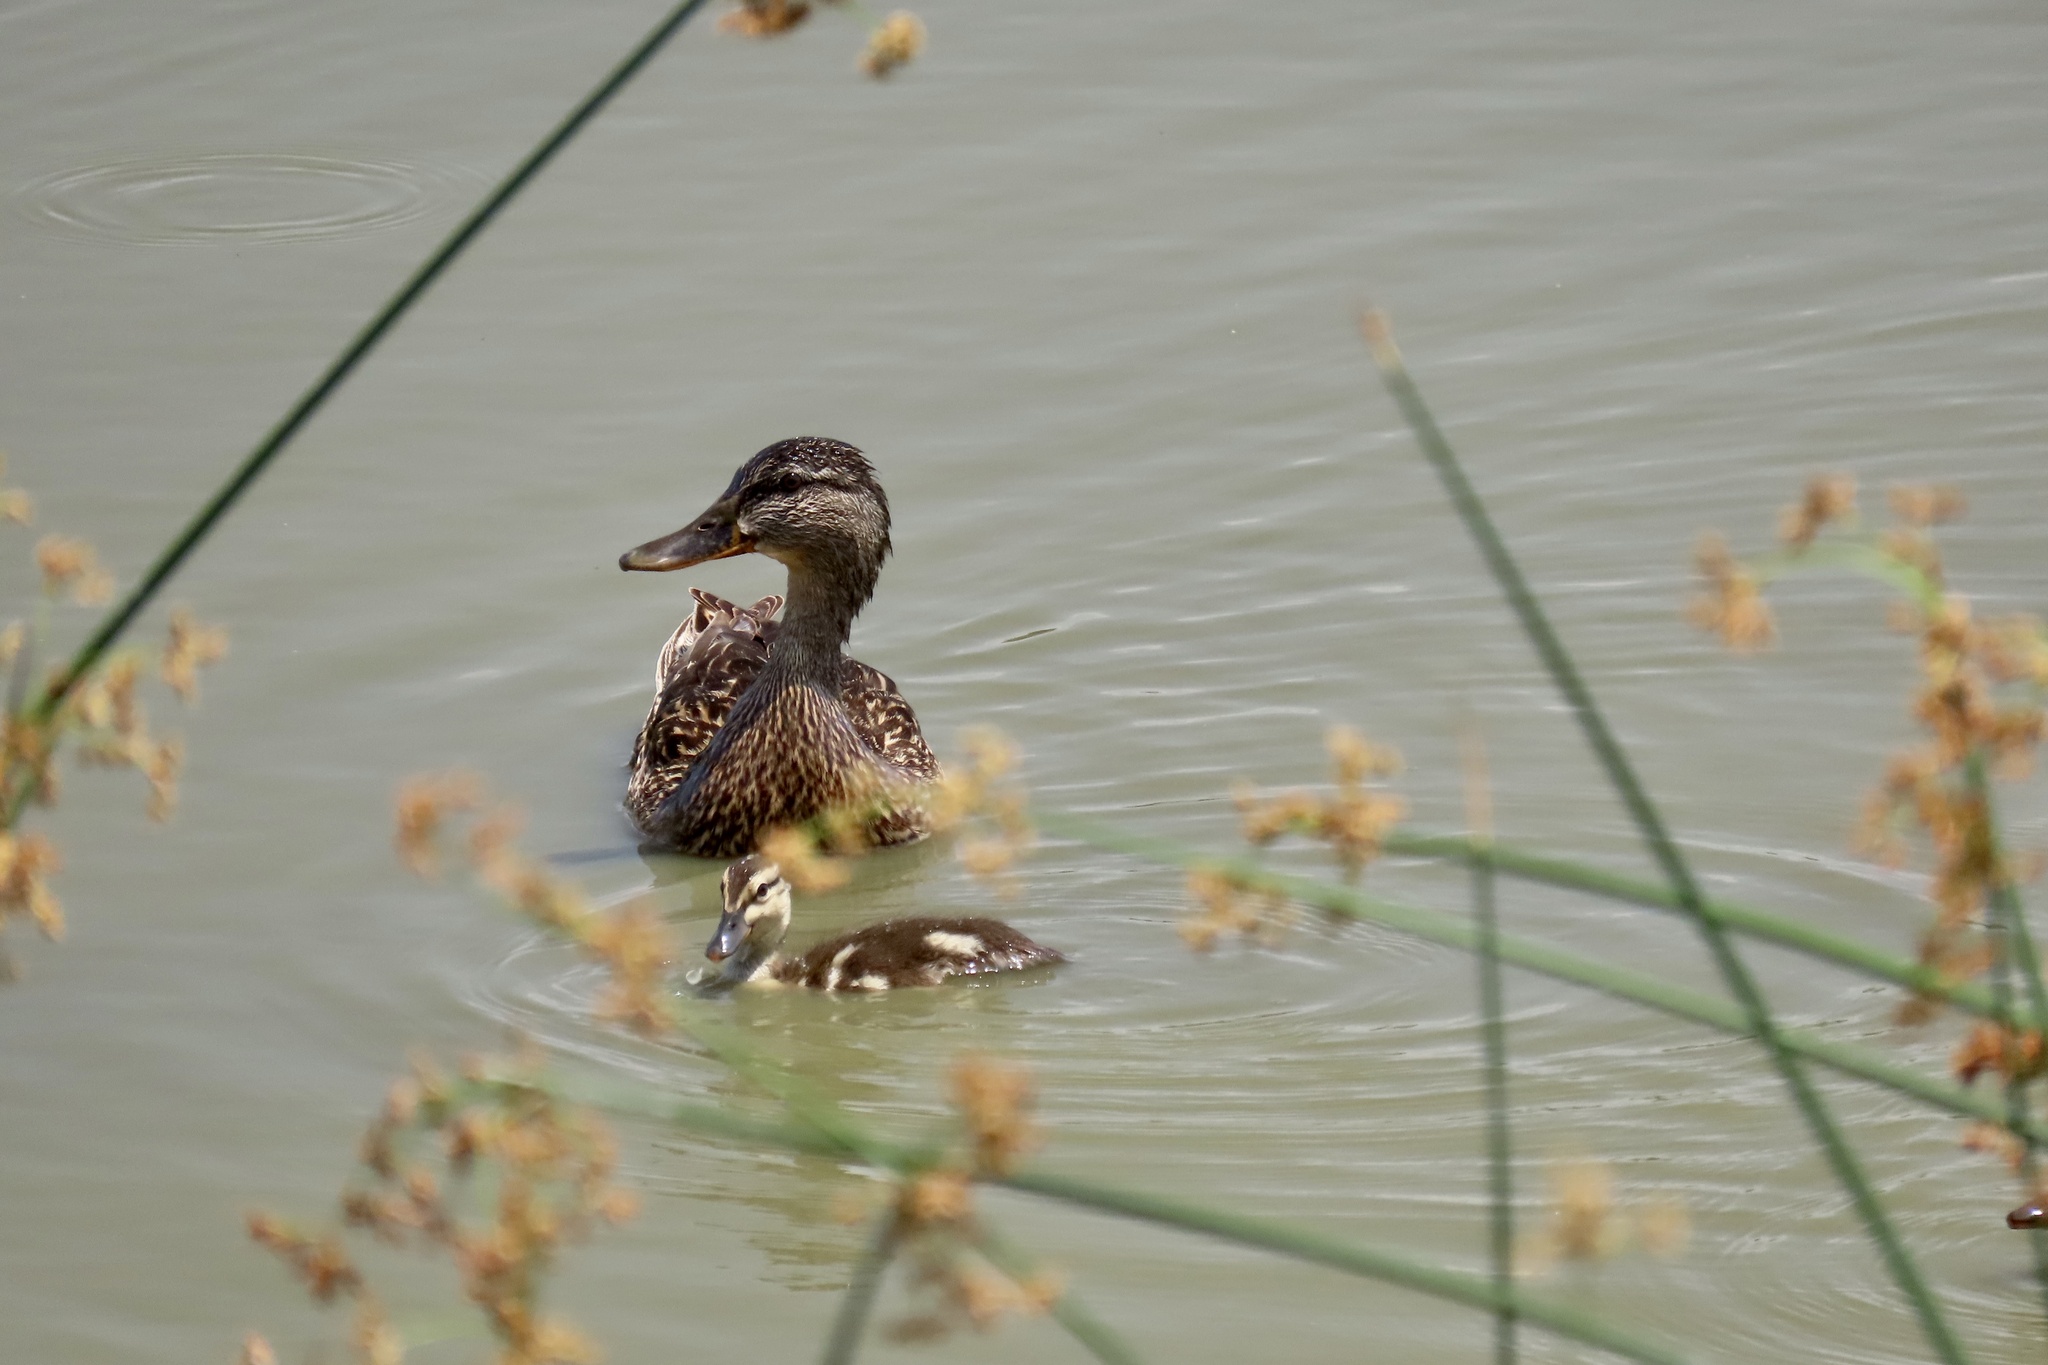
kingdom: Animalia
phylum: Chordata
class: Aves
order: Anseriformes
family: Anatidae
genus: Anas
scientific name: Anas platyrhynchos
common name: Mallard
